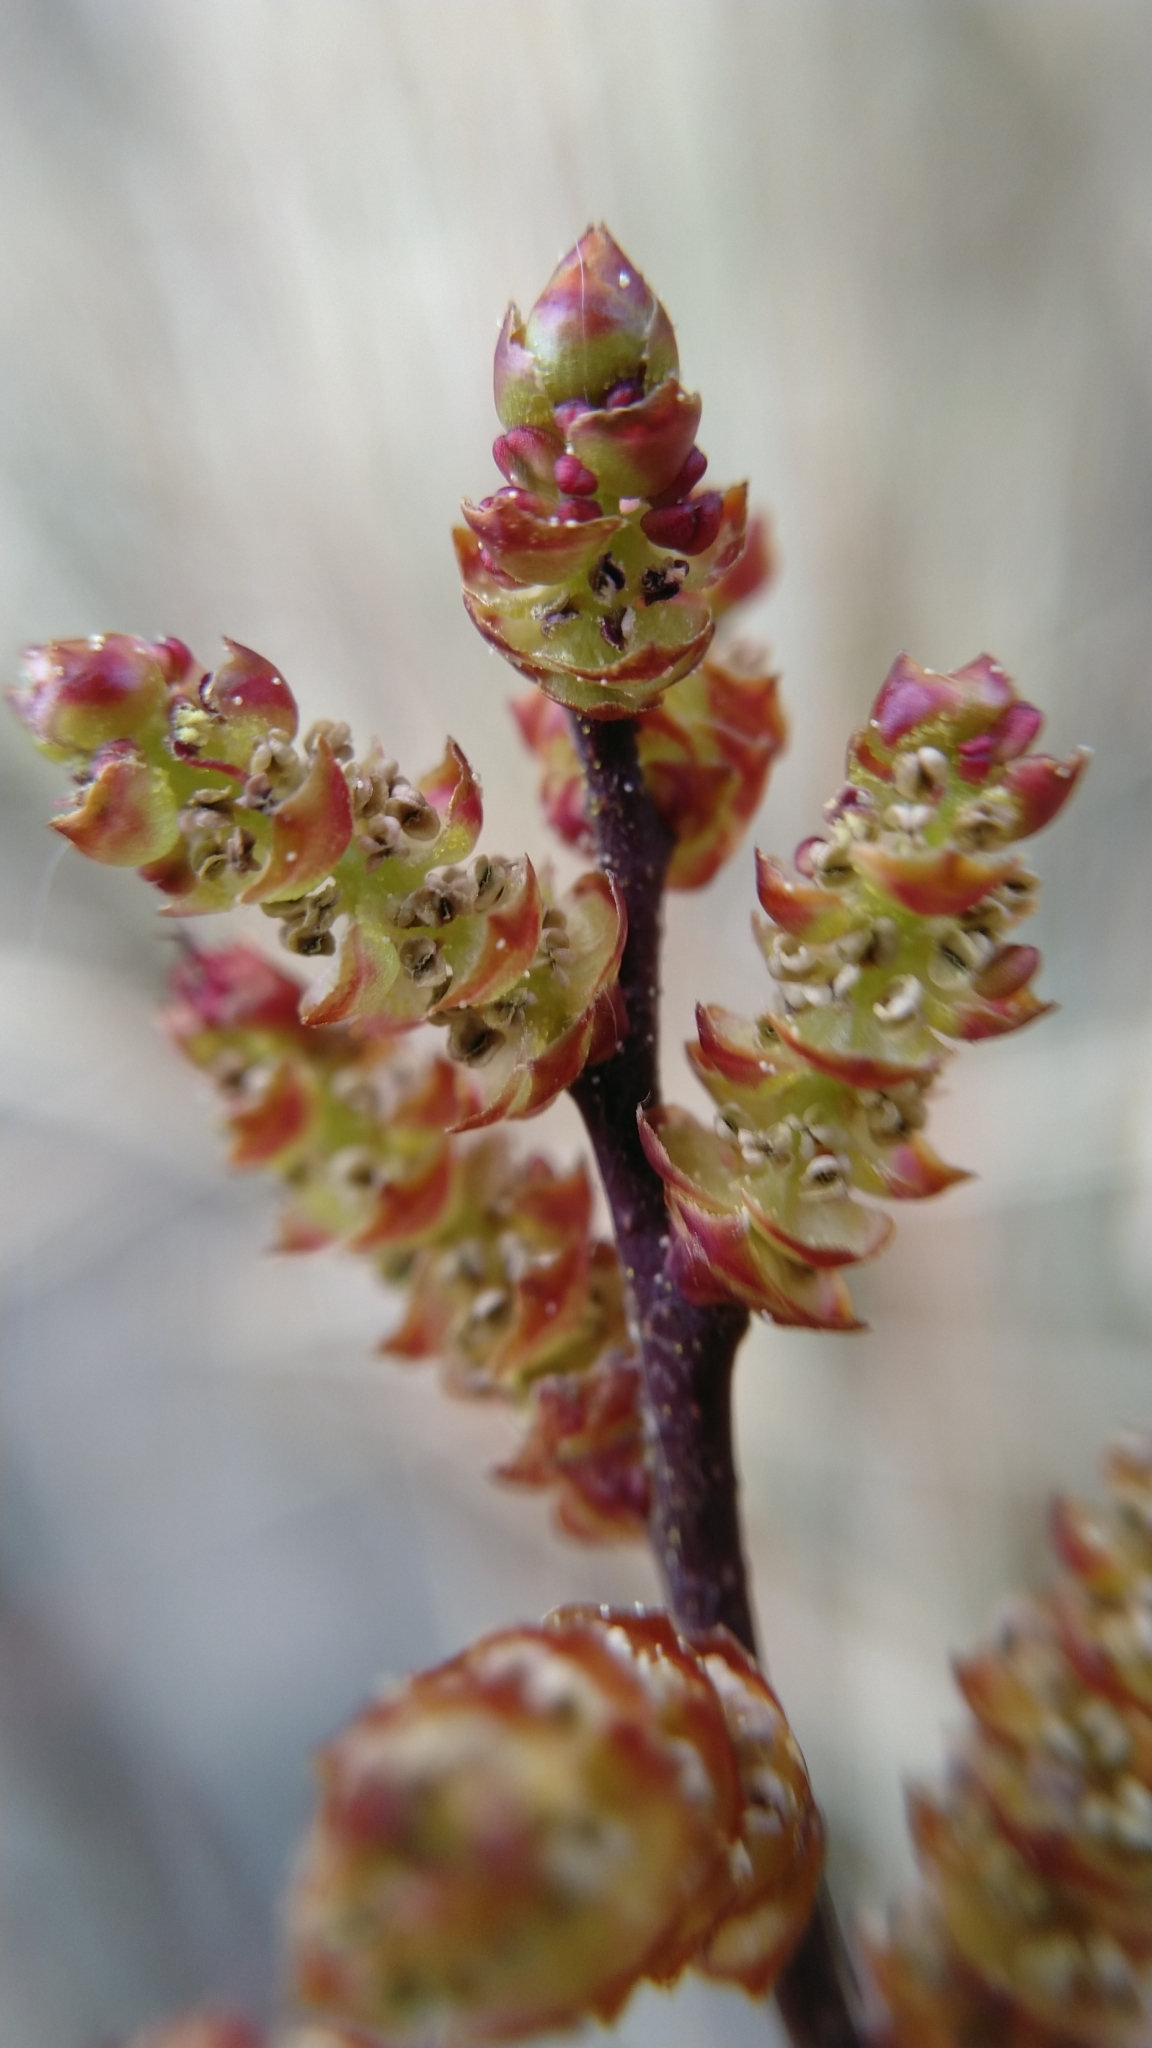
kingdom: Plantae
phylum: Tracheophyta
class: Magnoliopsida
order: Fagales
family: Myricaceae
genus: Myrica
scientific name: Myrica gale
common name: Sweet gale
